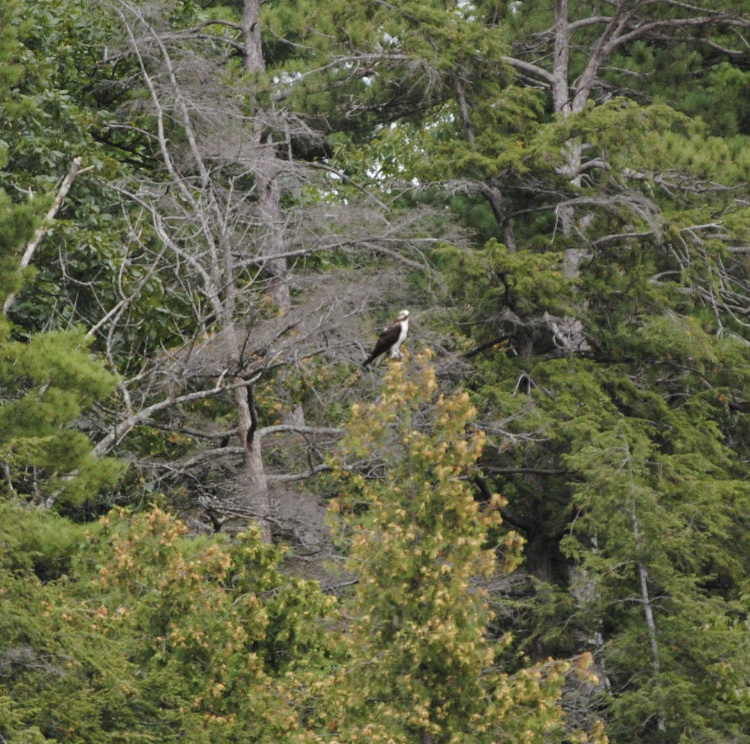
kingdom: Animalia
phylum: Chordata
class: Aves
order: Accipitriformes
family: Pandionidae
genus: Pandion
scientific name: Pandion haliaetus
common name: Osprey
